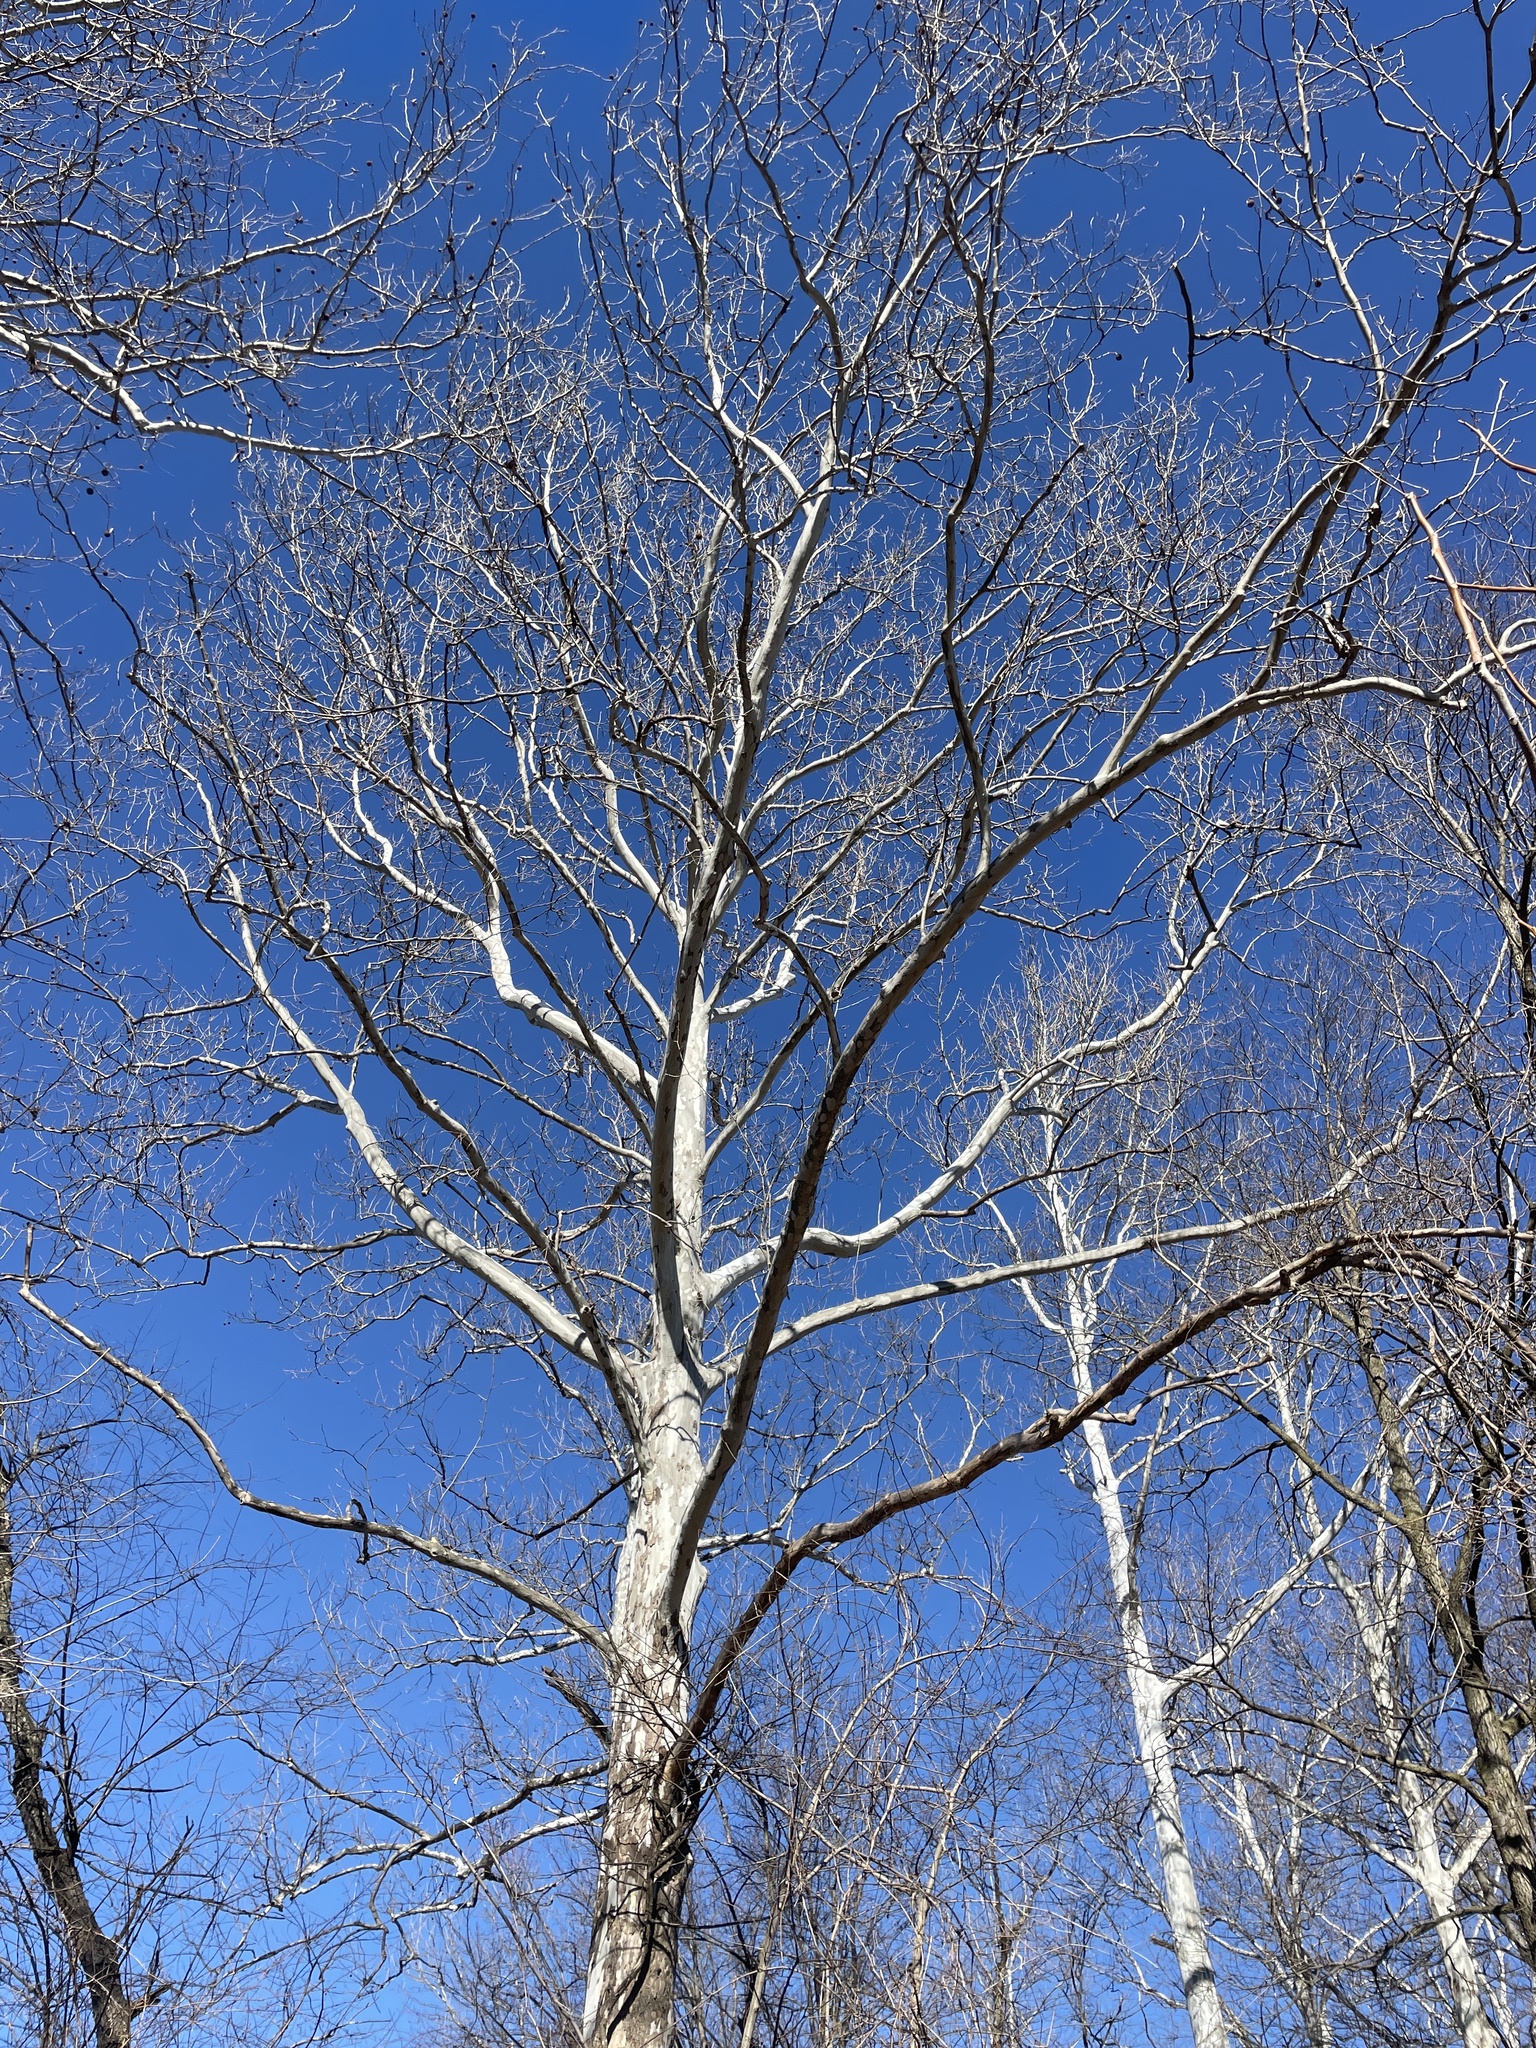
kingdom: Plantae
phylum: Tracheophyta
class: Magnoliopsida
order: Proteales
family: Platanaceae
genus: Platanus
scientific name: Platanus occidentalis
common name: American sycamore
